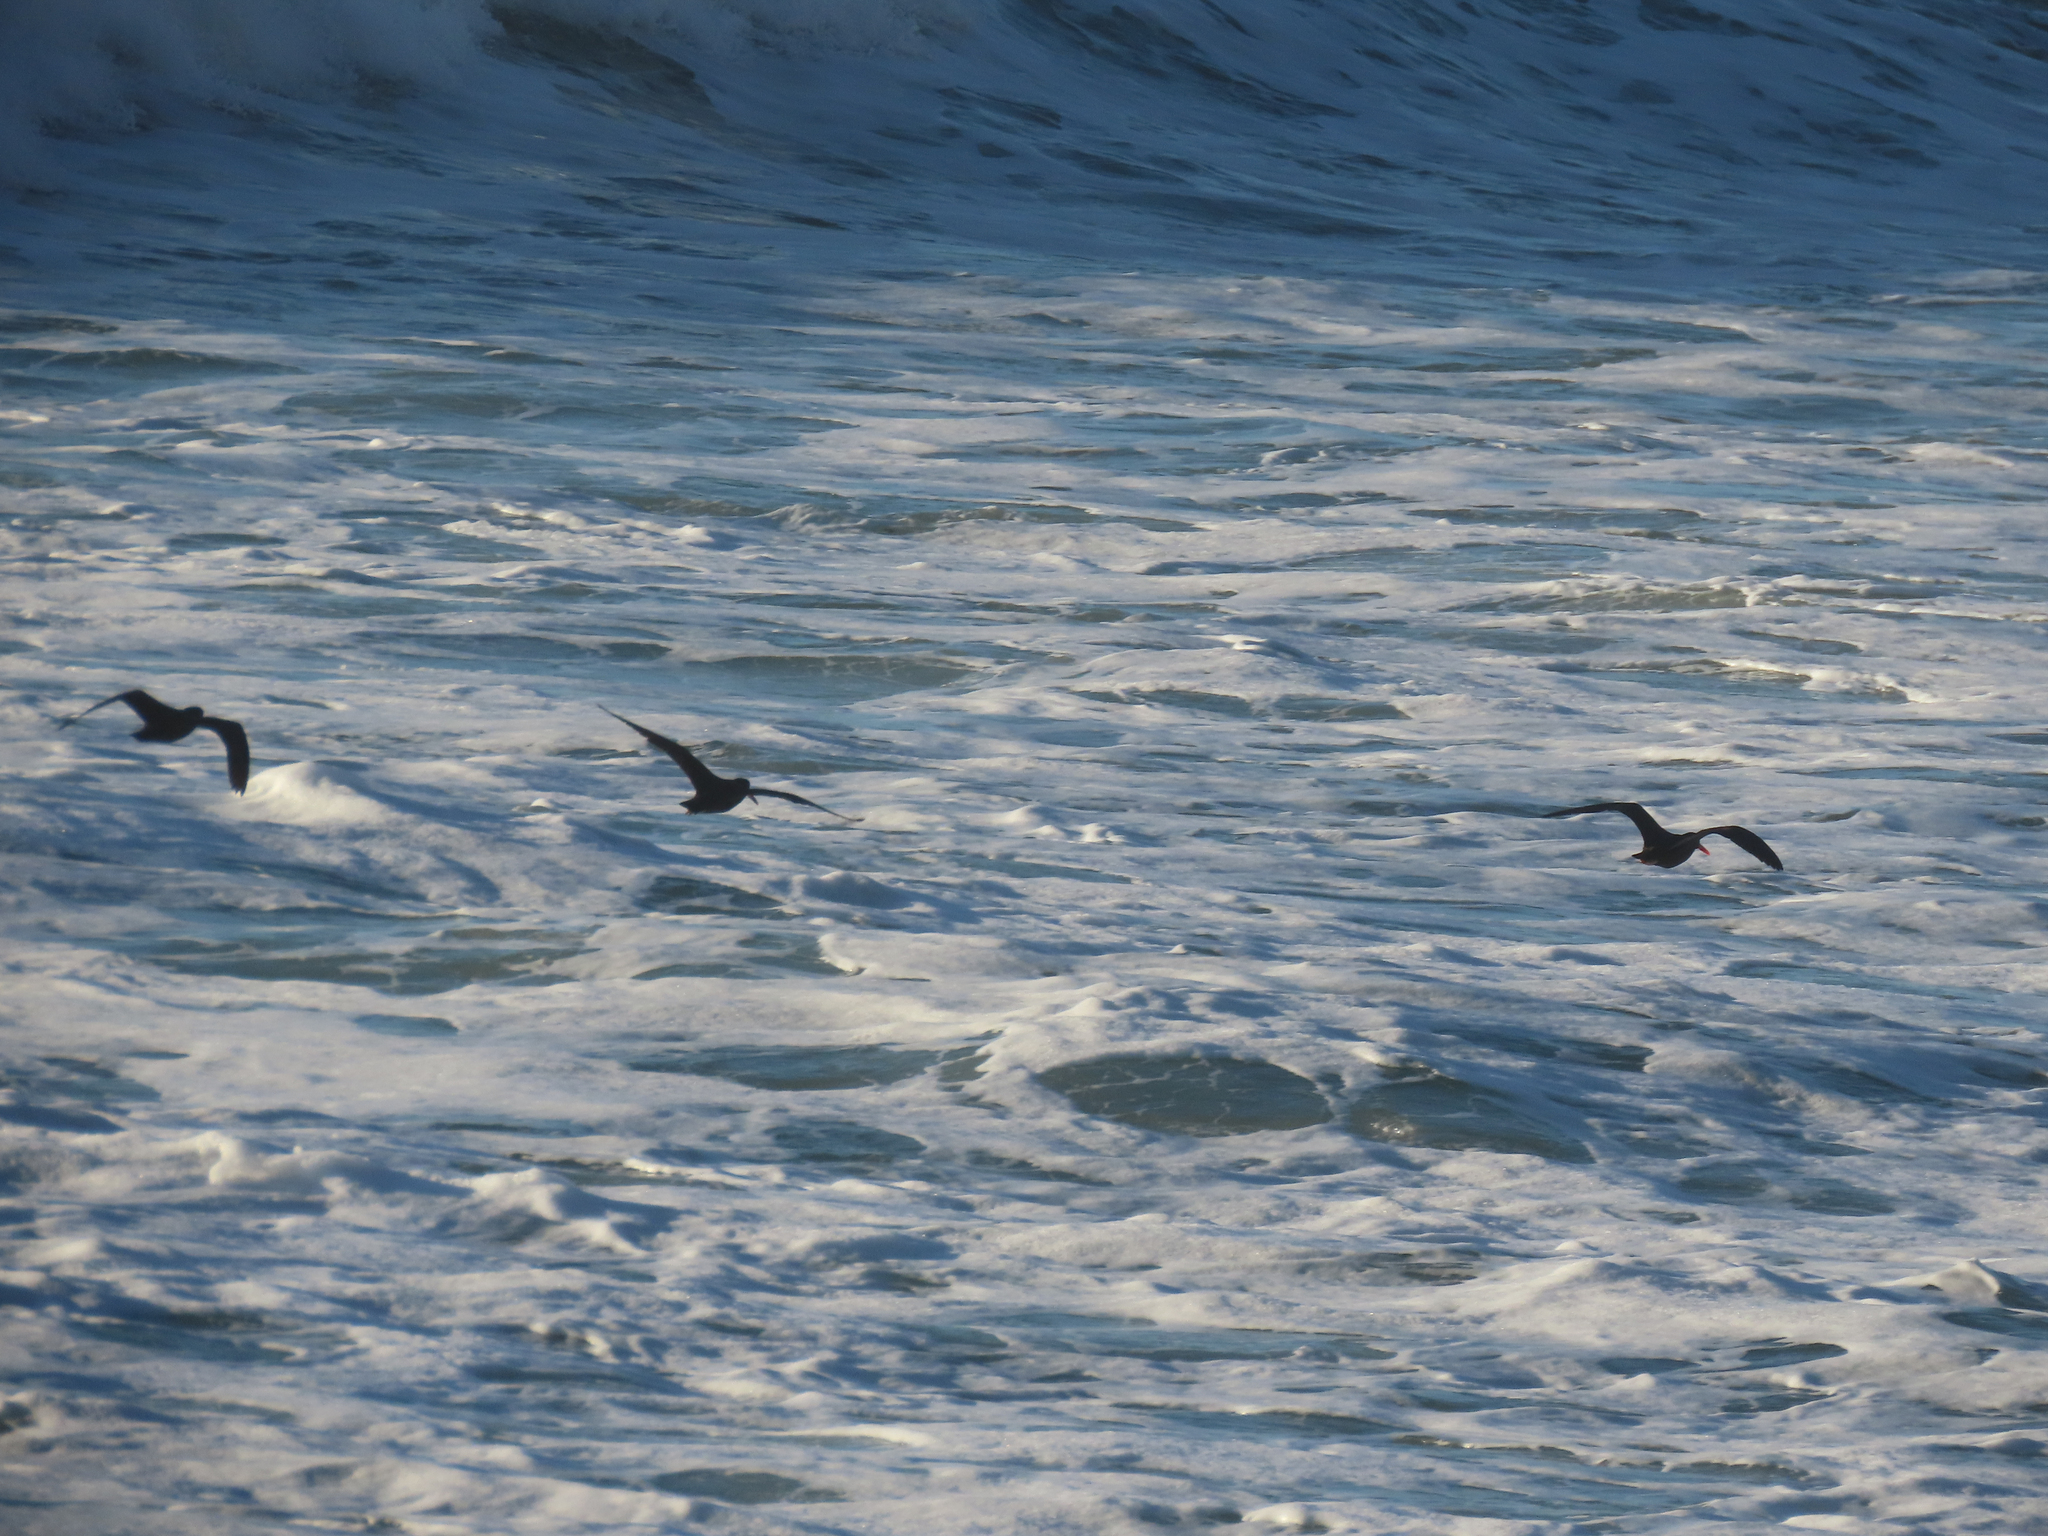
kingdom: Animalia
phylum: Chordata
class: Aves
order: Charadriiformes
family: Haematopodidae
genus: Haematopus
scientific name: Haematopus bachmani
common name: Black oystercatcher
